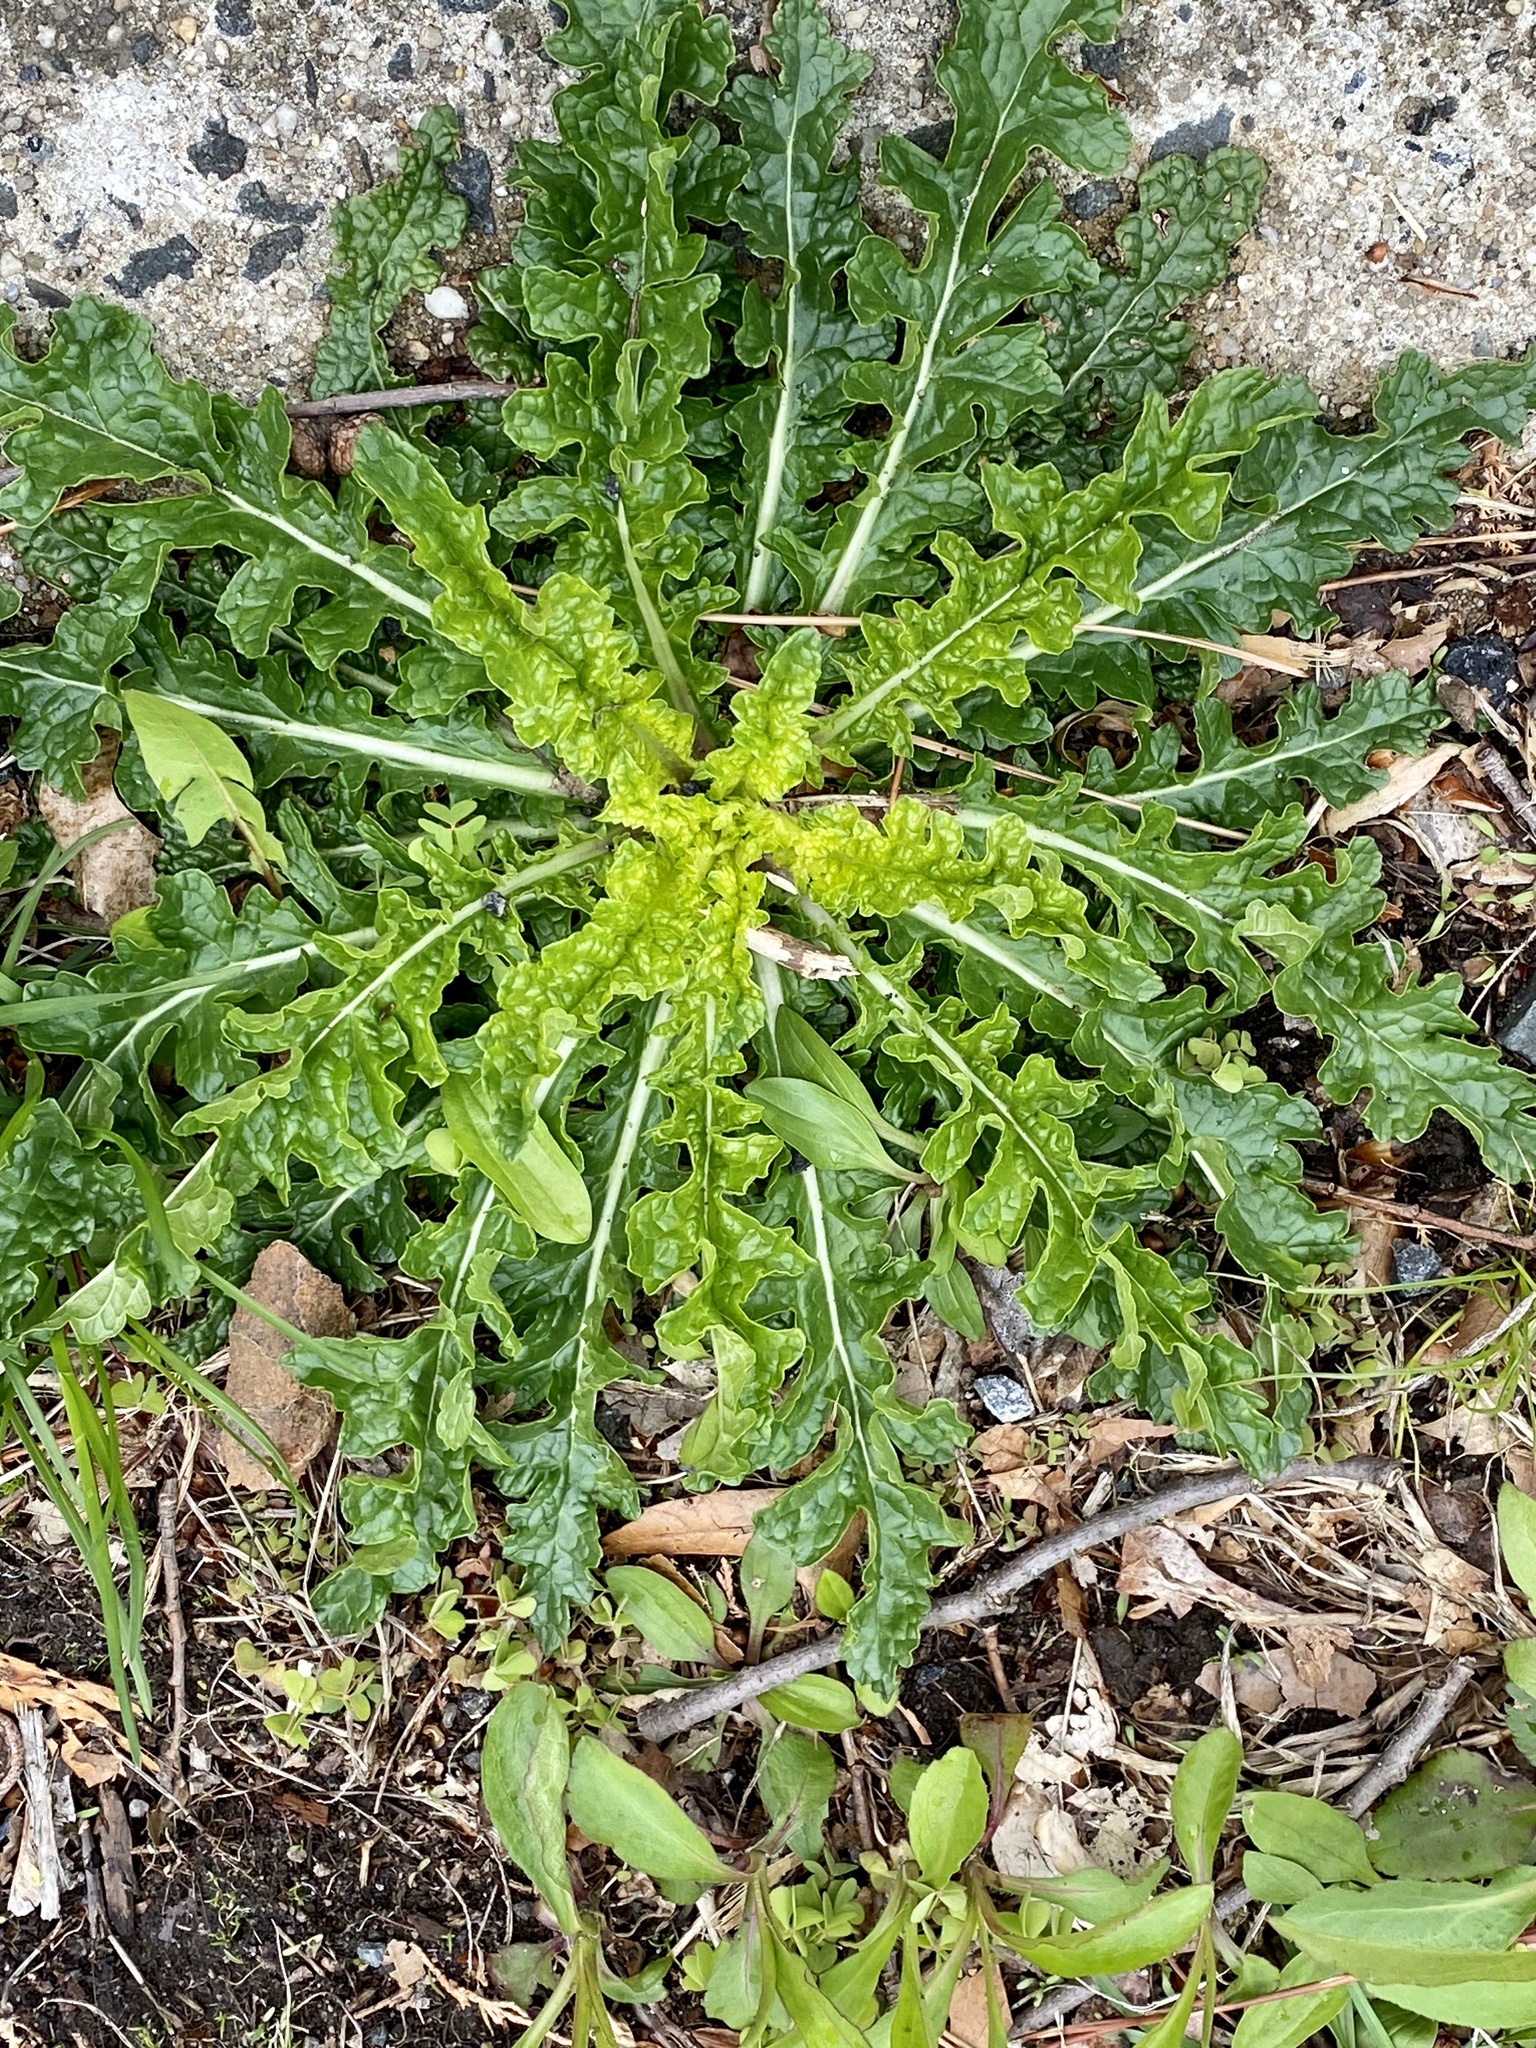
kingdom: Plantae
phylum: Tracheophyta
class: Magnoliopsida
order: Lamiales
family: Scrophulariaceae
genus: Verbascum
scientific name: Verbascum blattaria
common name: Moth mullein
